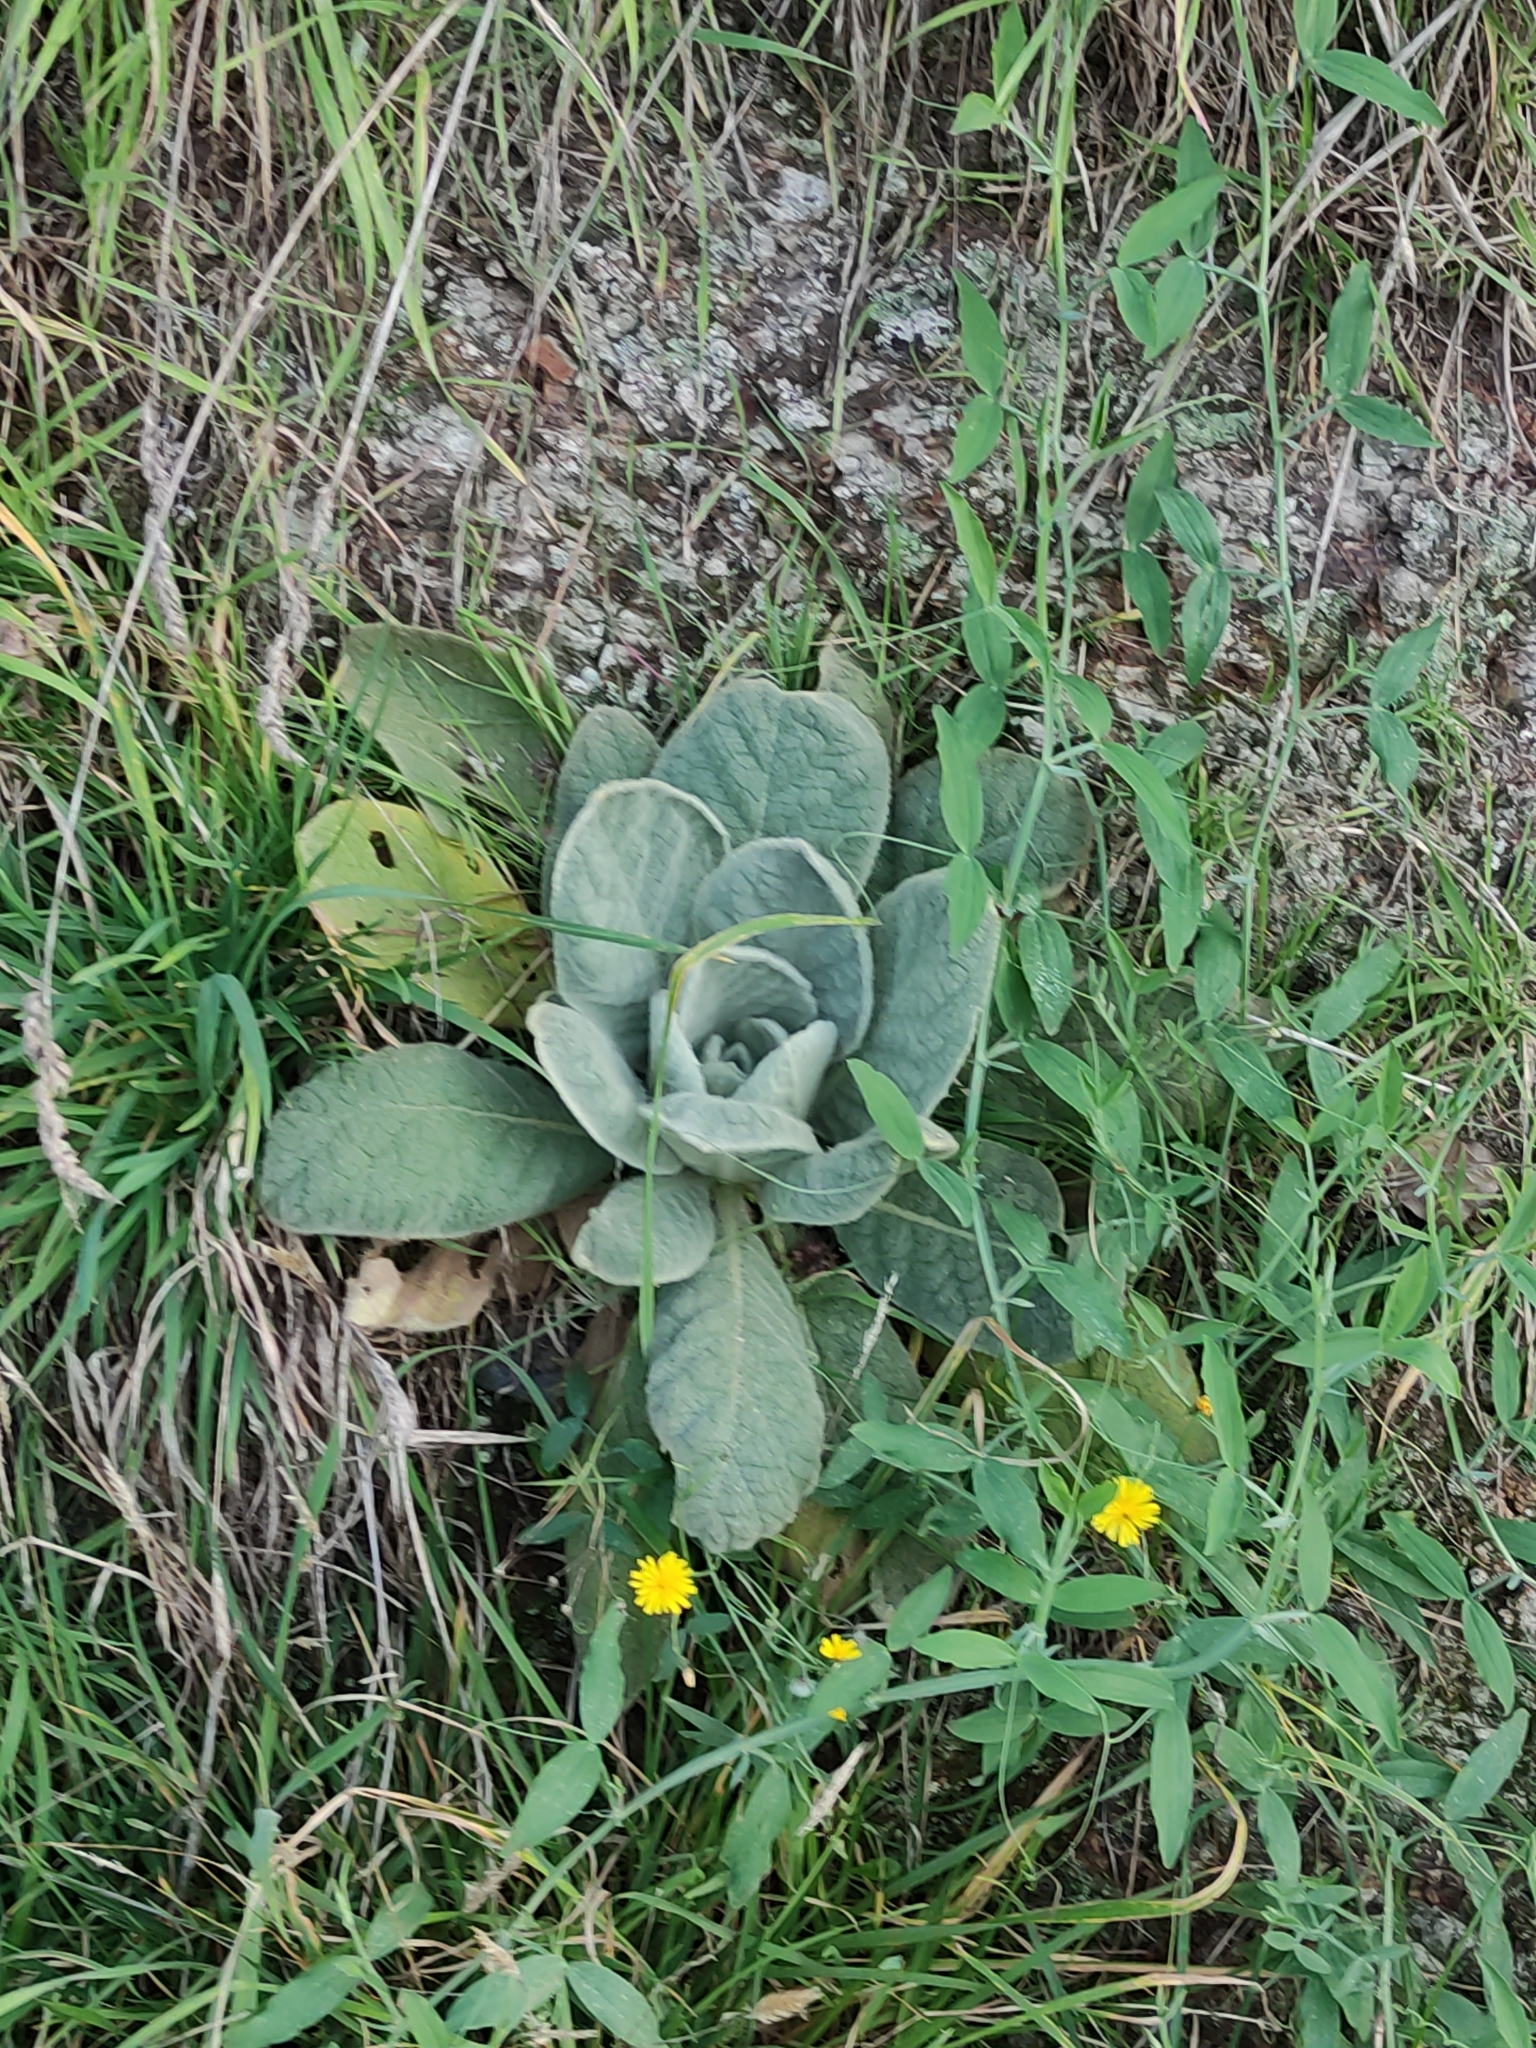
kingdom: Plantae
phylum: Tracheophyta
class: Magnoliopsida
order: Lamiales
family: Scrophulariaceae
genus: Verbascum
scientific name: Verbascum thapsus
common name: Common mullein
